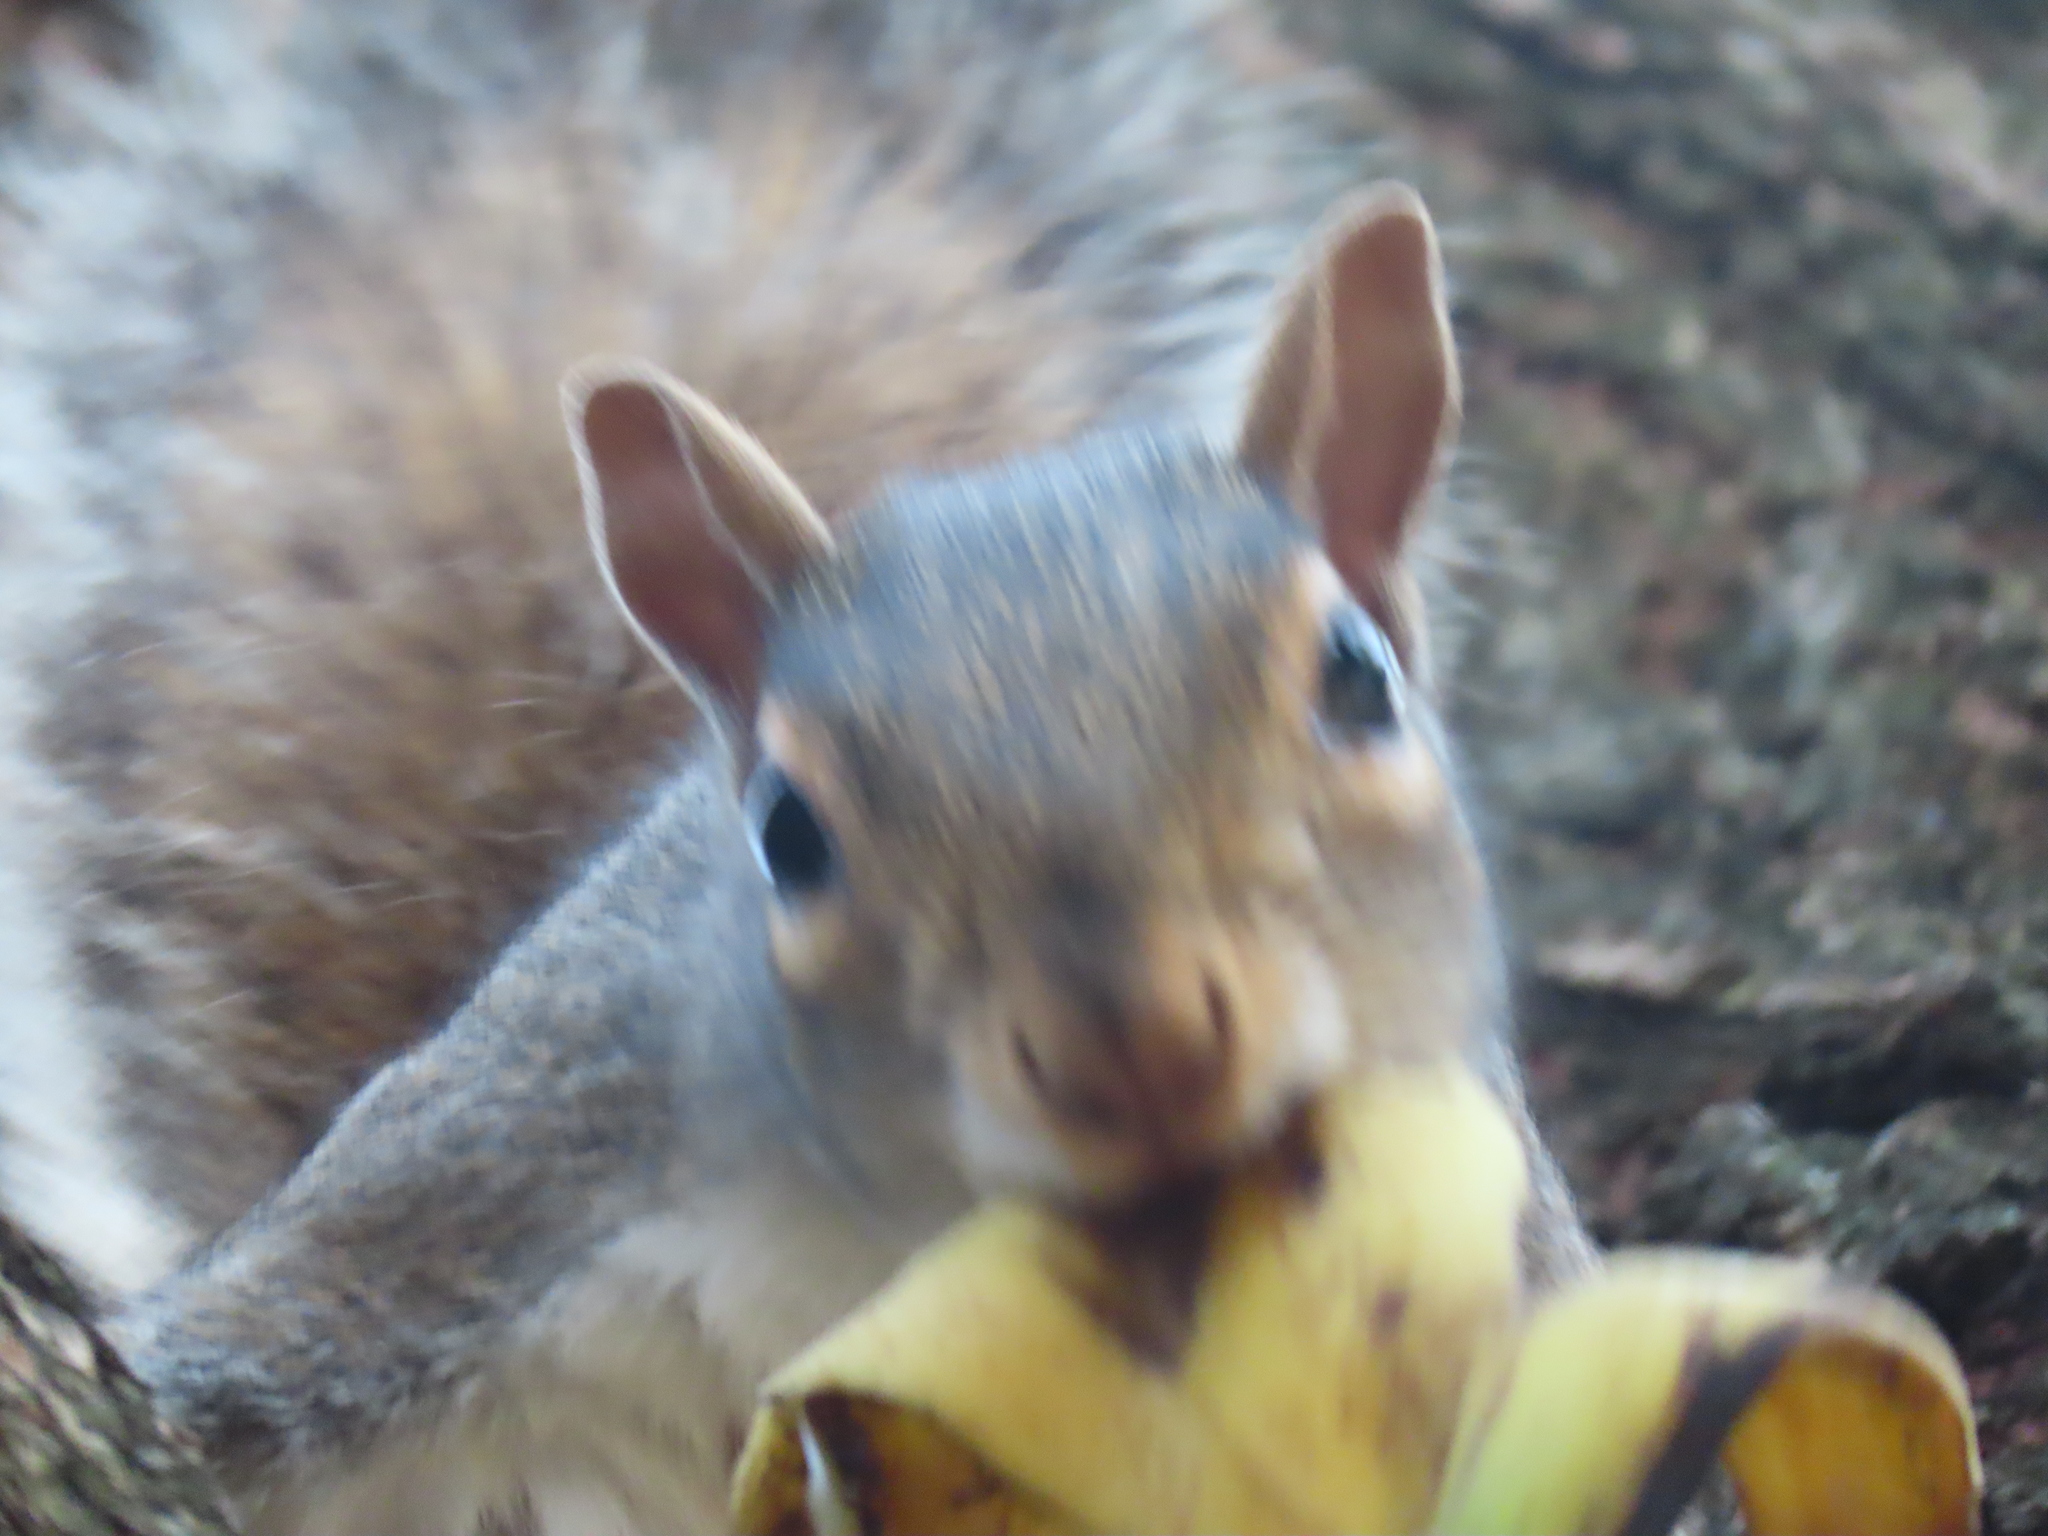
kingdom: Animalia
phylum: Chordata
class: Mammalia
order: Rodentia
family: Sciuridae
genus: Sciurus
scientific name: Sciurus carolinensis
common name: Eastern gray squirrel
